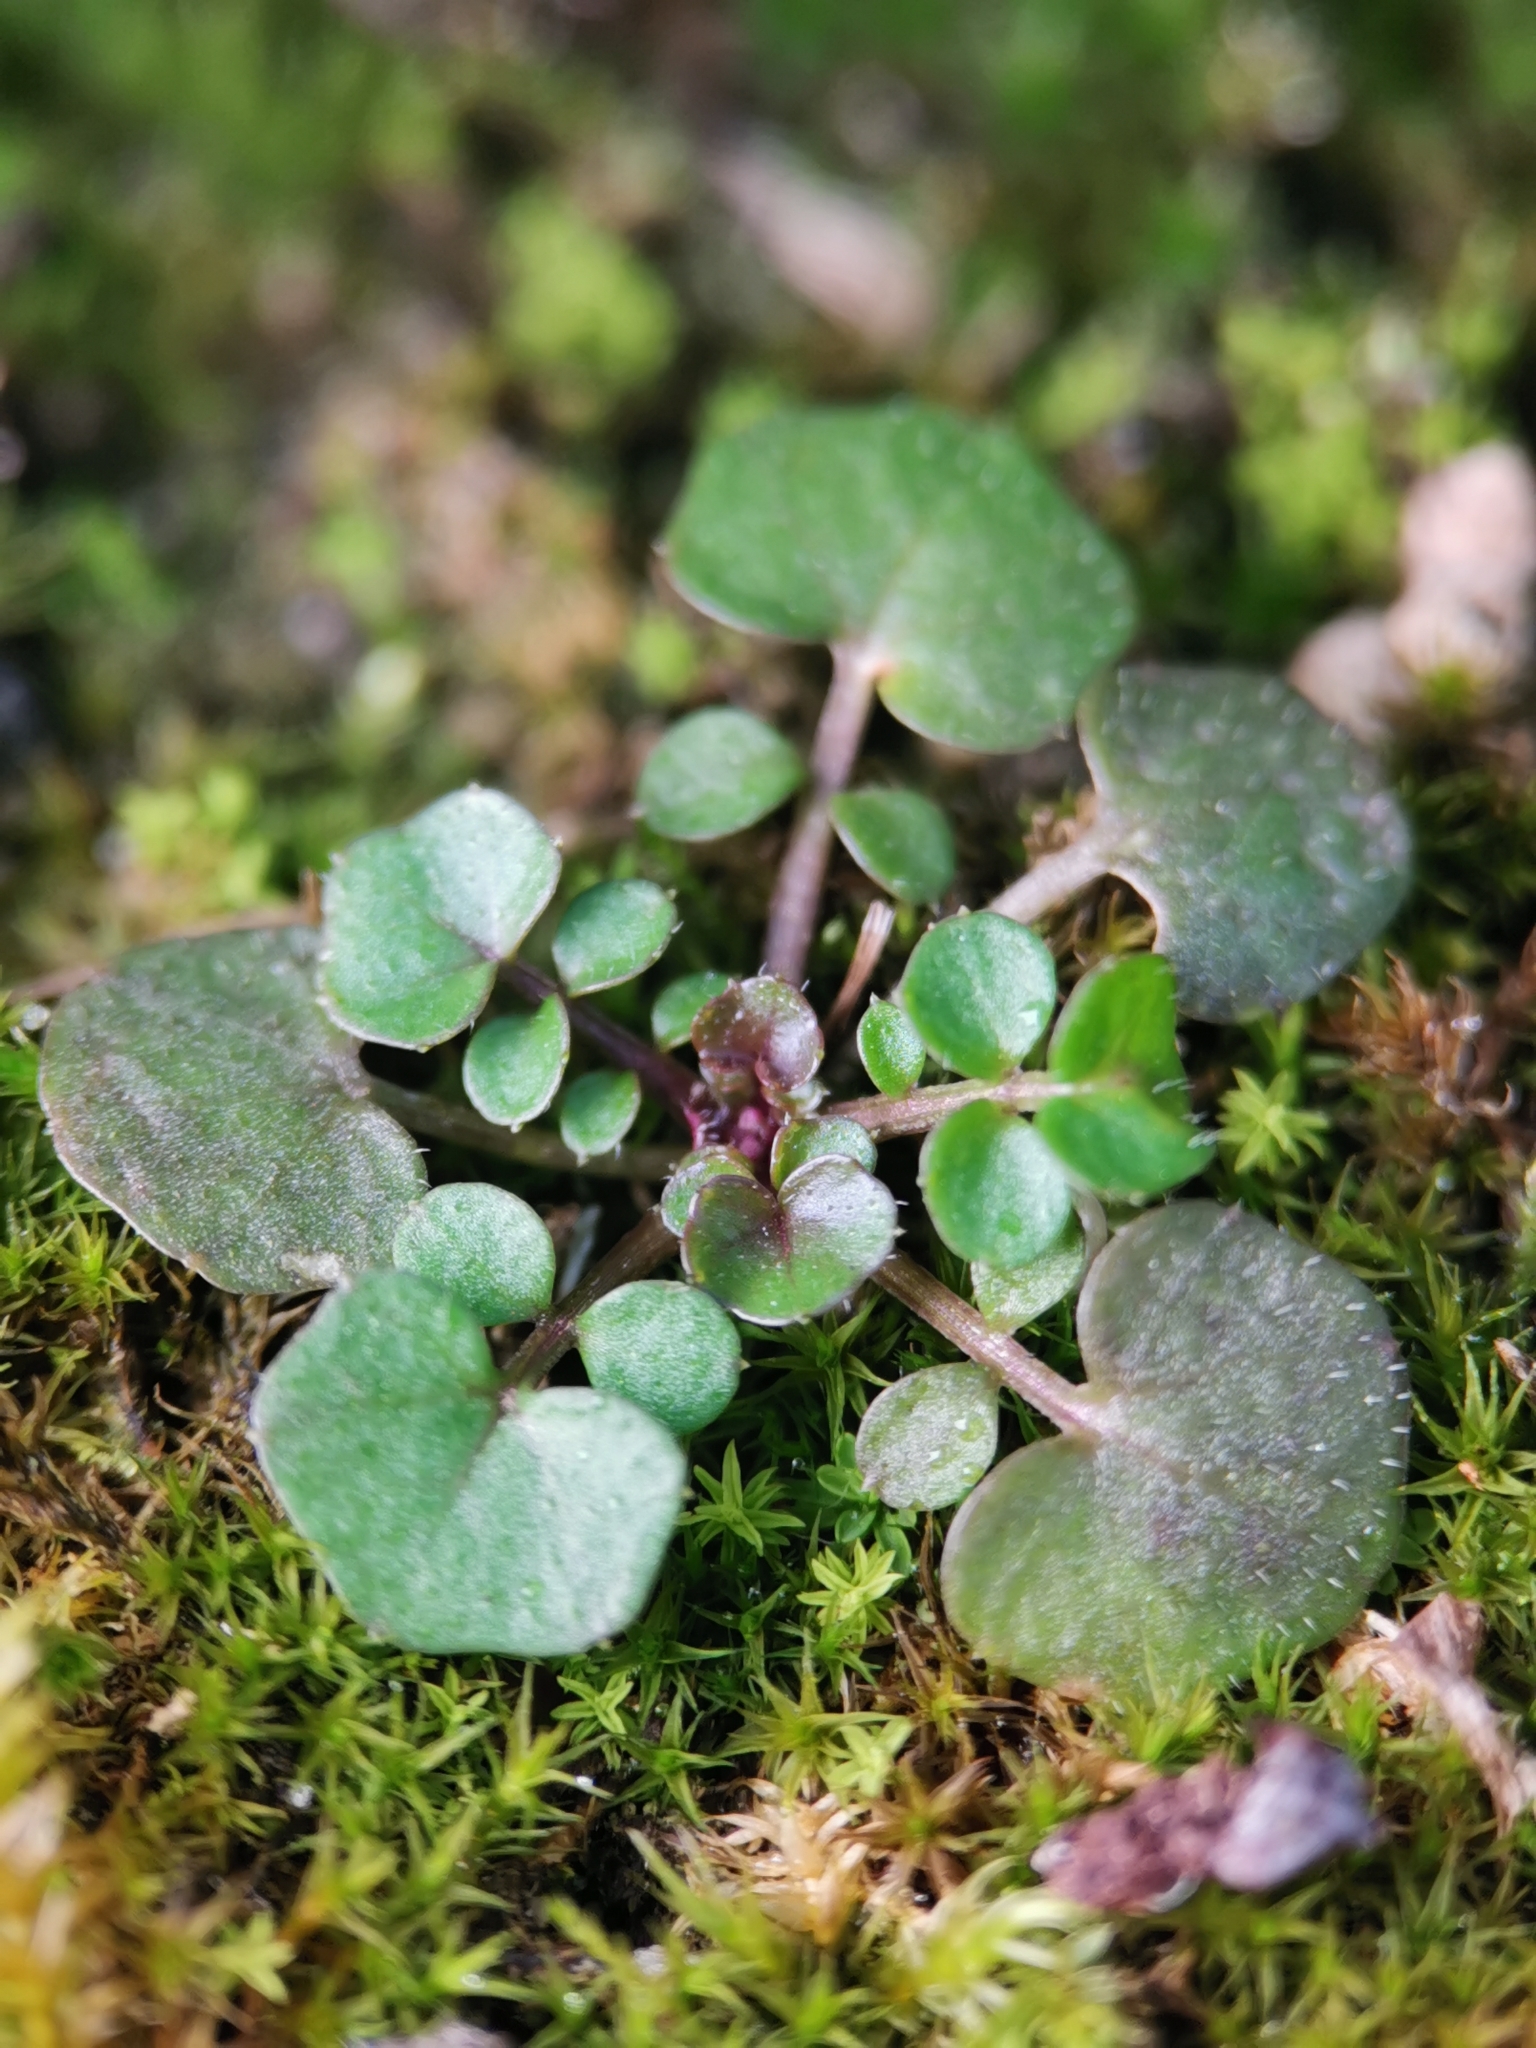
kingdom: Plantae
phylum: Tracheophyta
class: Magnoliopsida
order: Brassicales
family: Brassicaceae
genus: Cardamine
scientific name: Cardamine hirsuta
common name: Hairy bittercress
